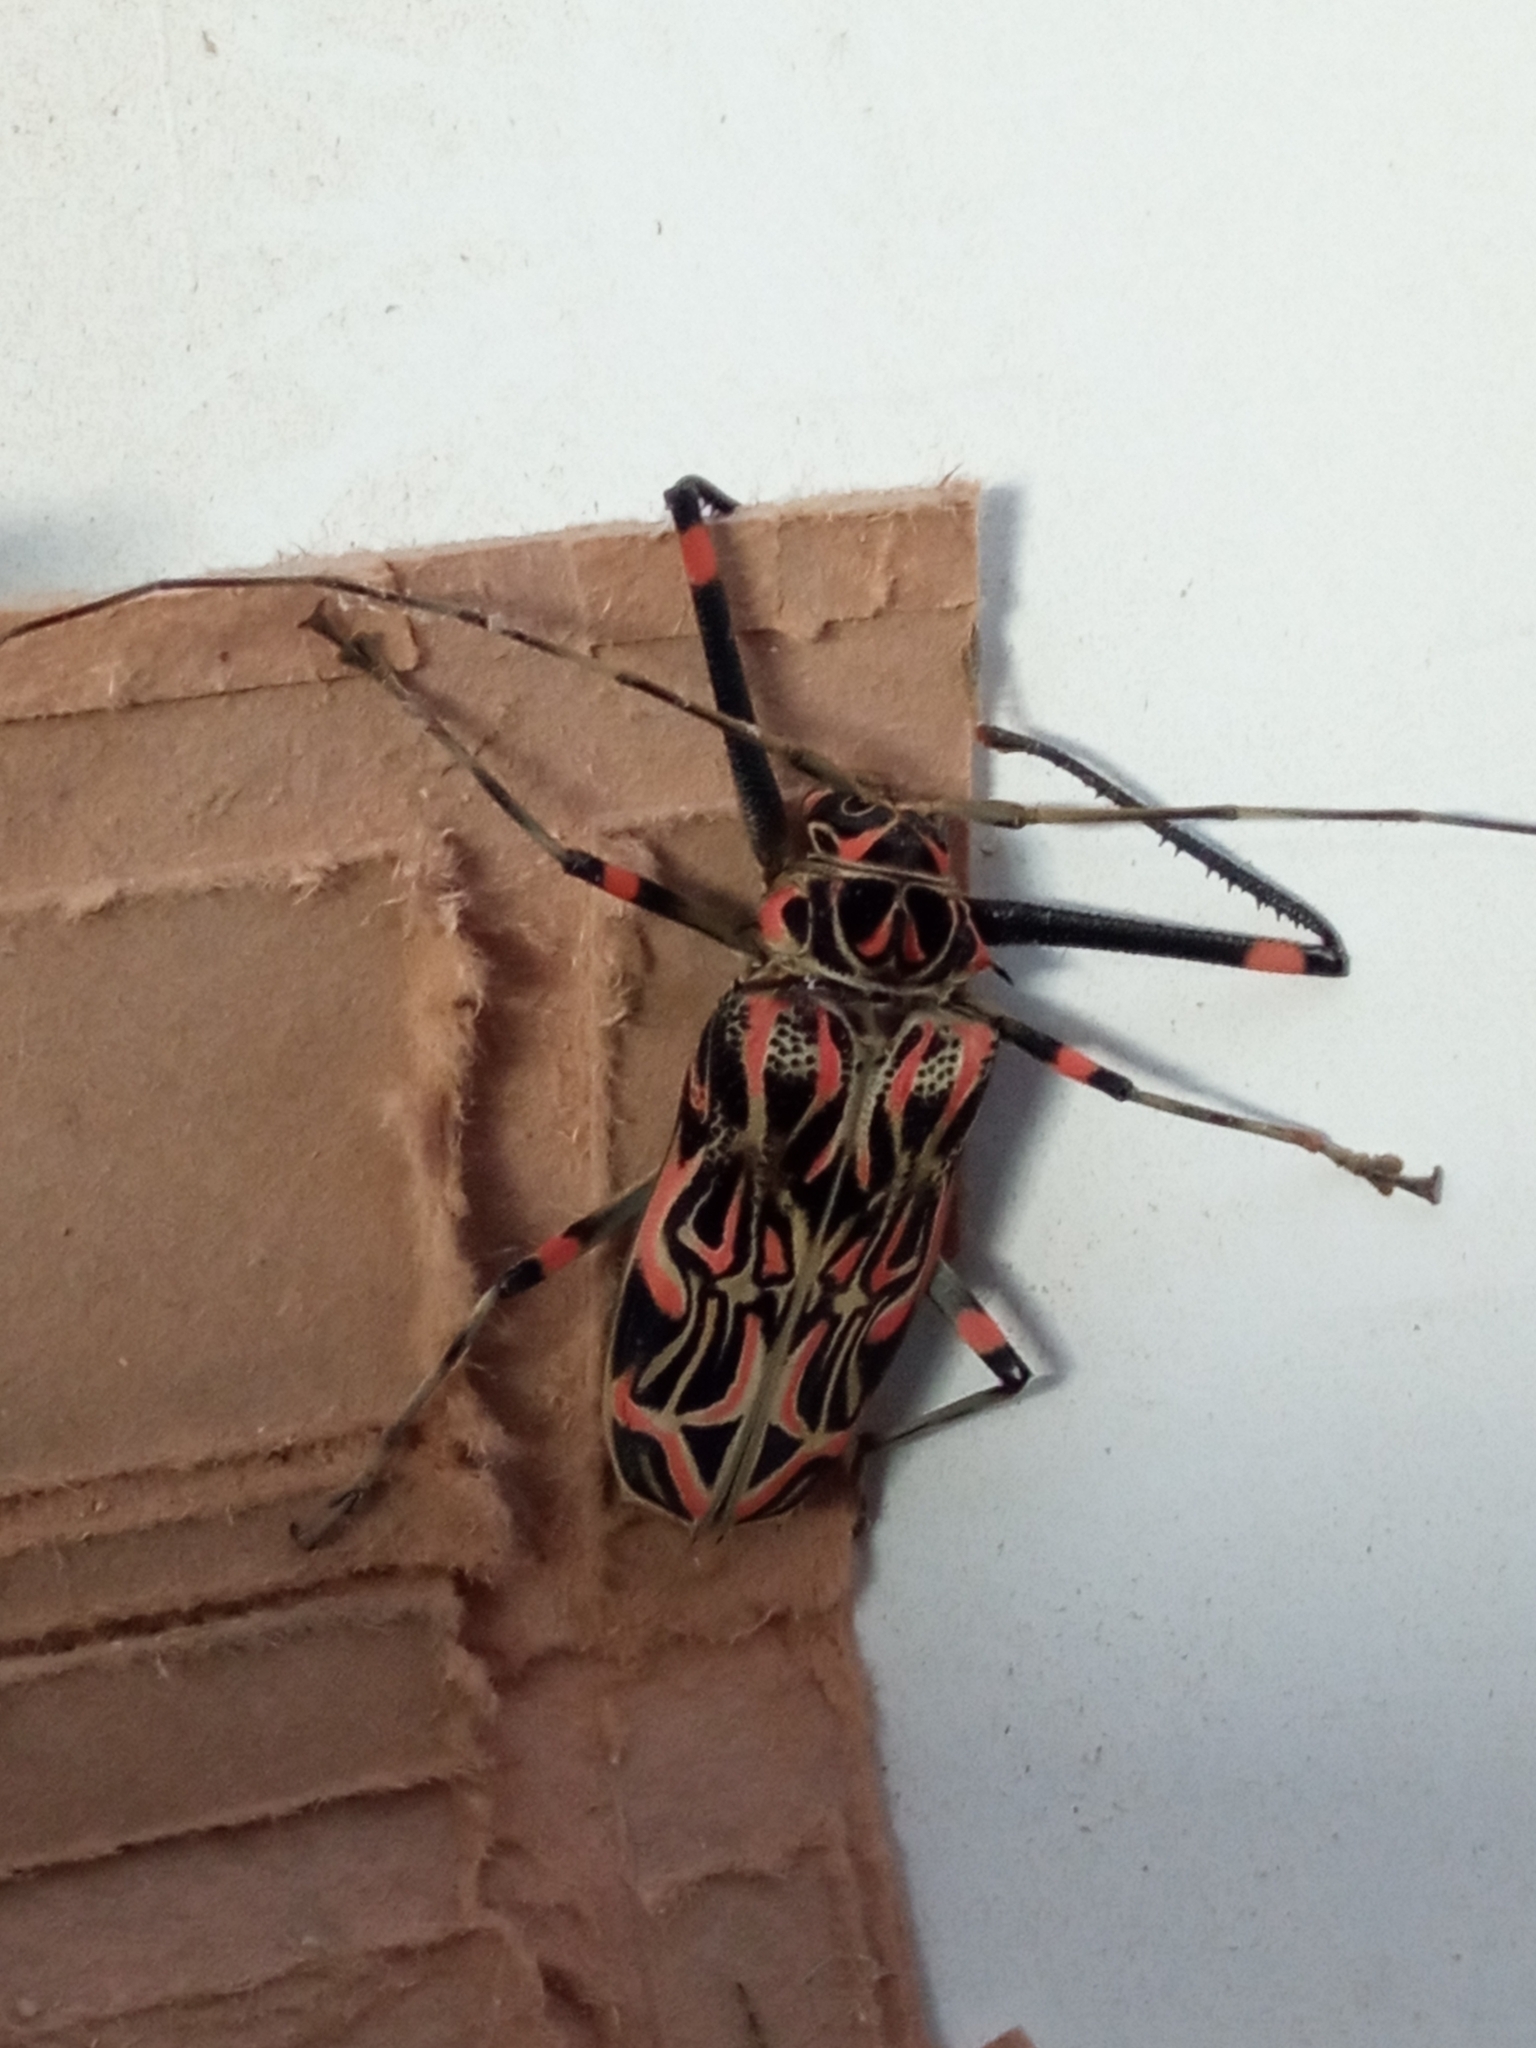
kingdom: Animalia
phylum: Arthropoda
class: Insecta
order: Coleoptera
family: Cerambycidae
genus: Acrocinus
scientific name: Acrocinus longimanus
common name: Arlequin
